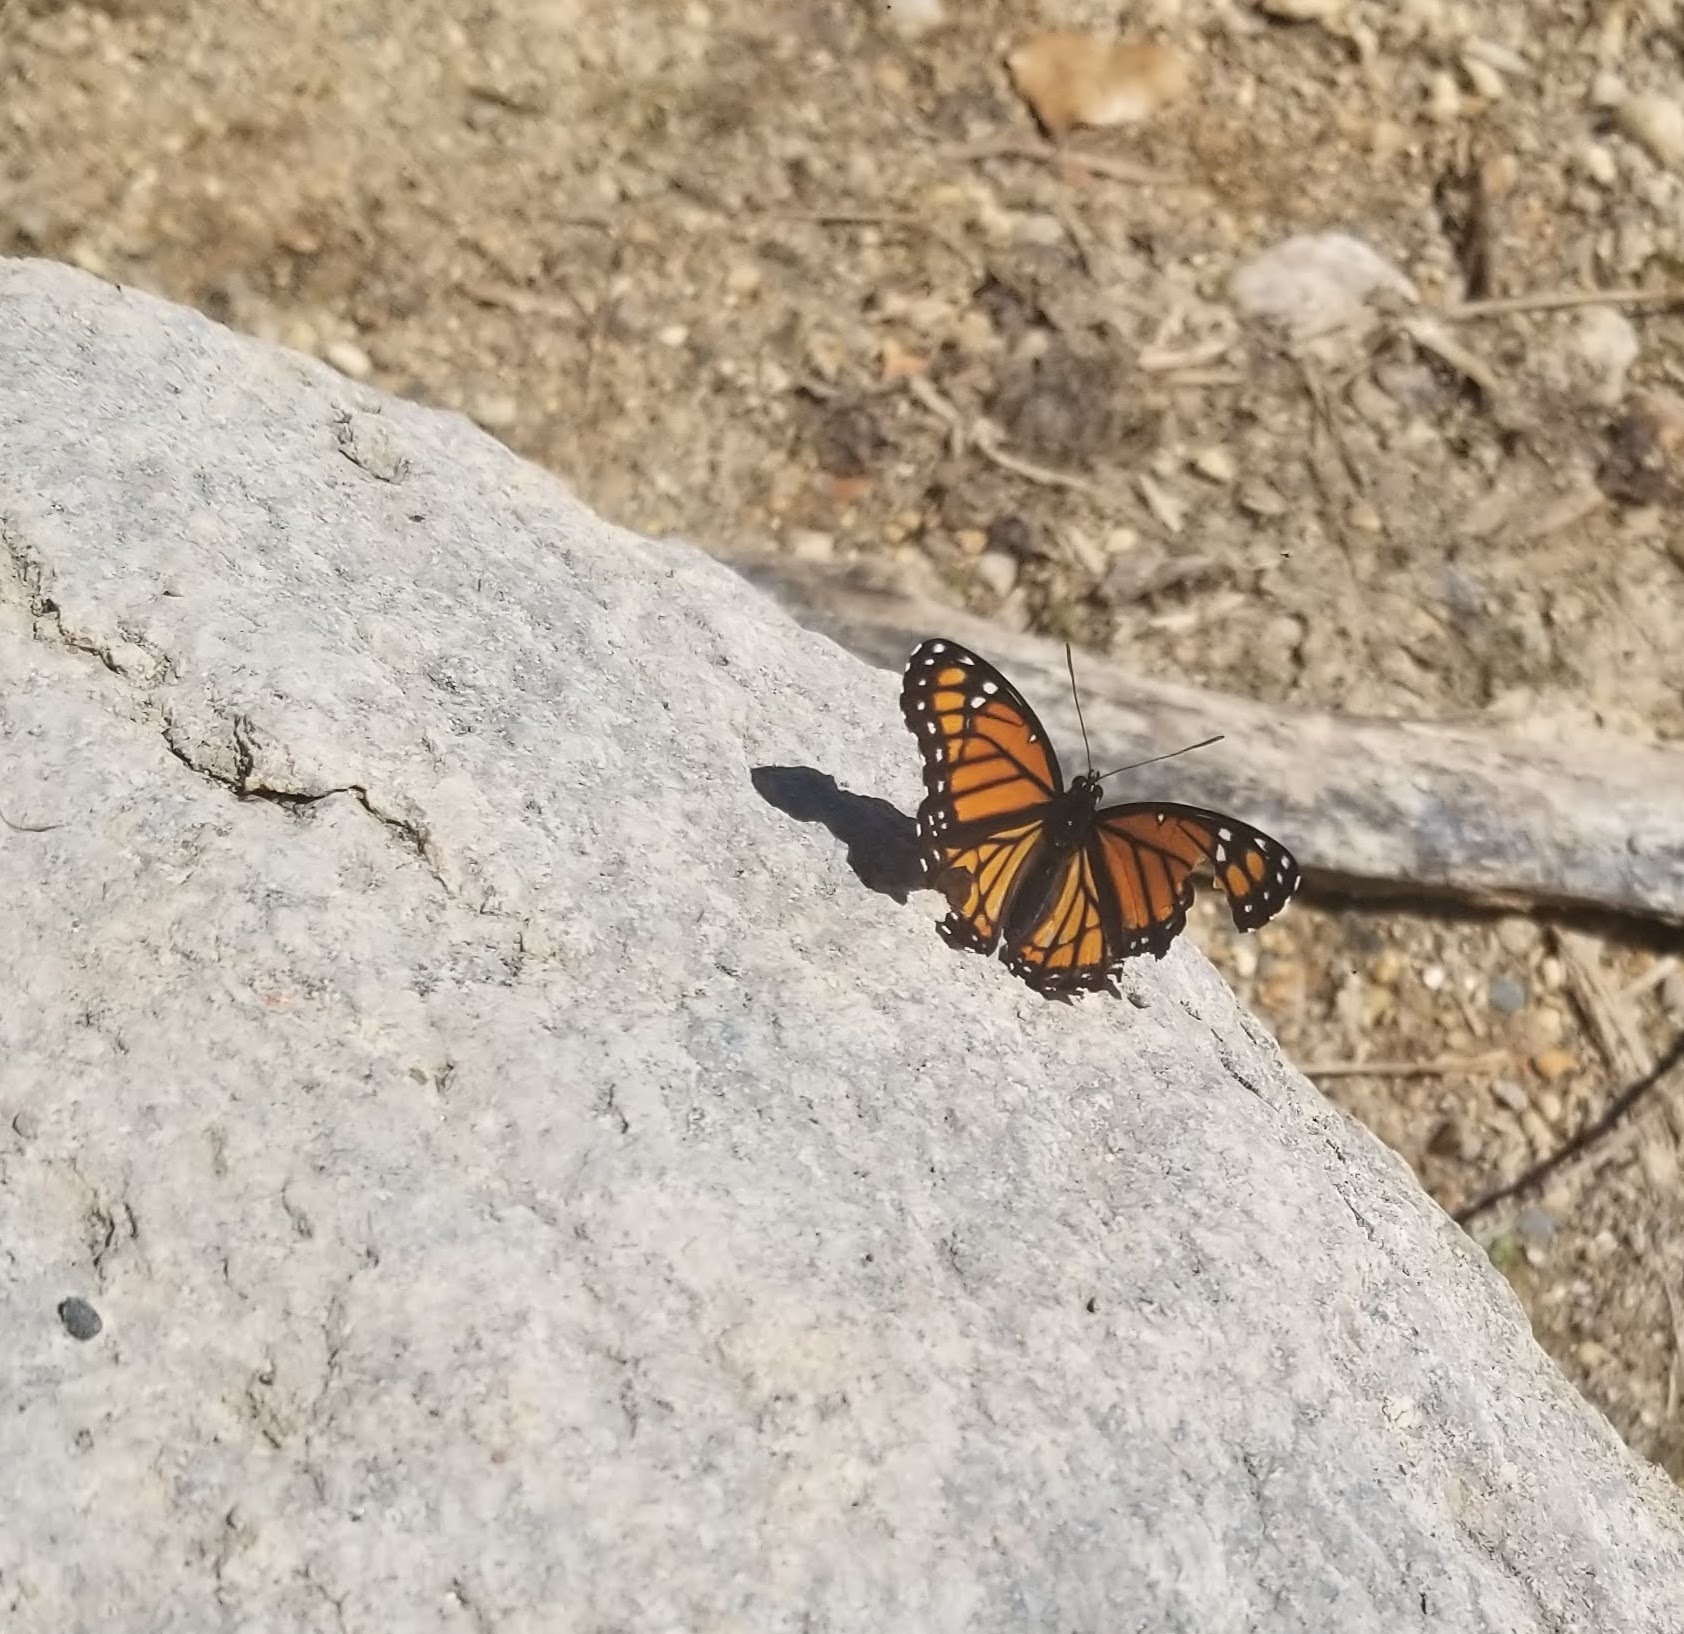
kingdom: Animalia
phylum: Arthropoda
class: Insecta
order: Lepidoptera
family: Nymphalidae
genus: Limenitis
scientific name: Limenitis archippus
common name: Viceroy
